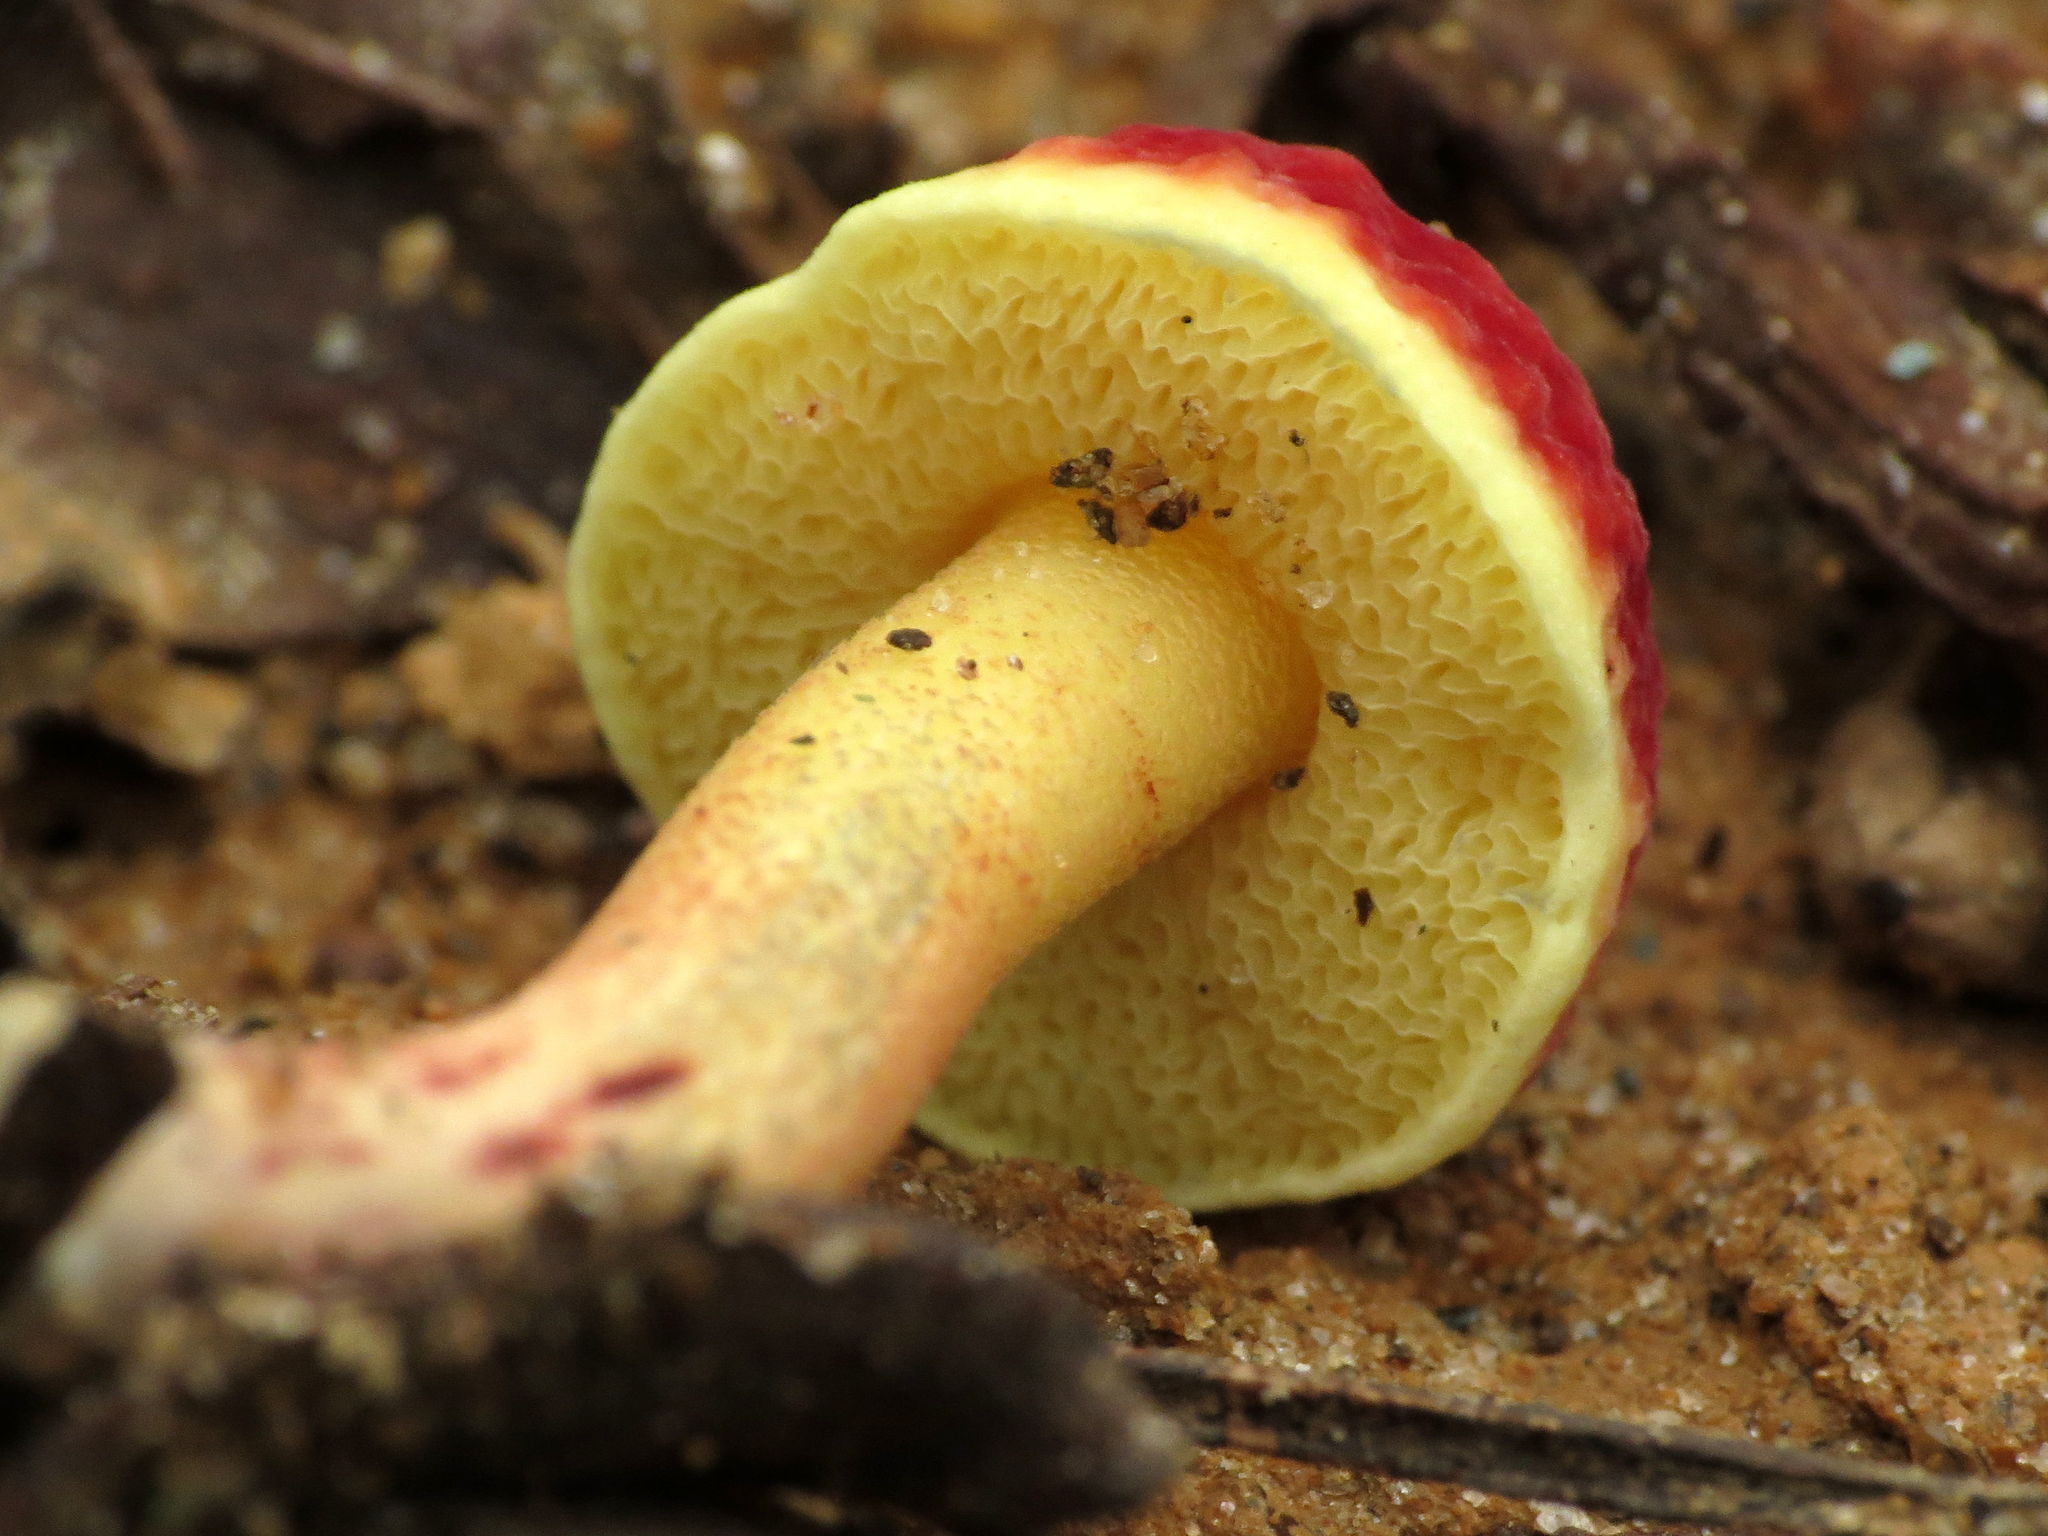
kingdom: Fungi
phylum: Basidiomycota
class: Agaricomycetes
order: Boletales
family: Boletaceae
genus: Hortiboletus
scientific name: Hortiboletus rubellus
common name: Ruby bolete
